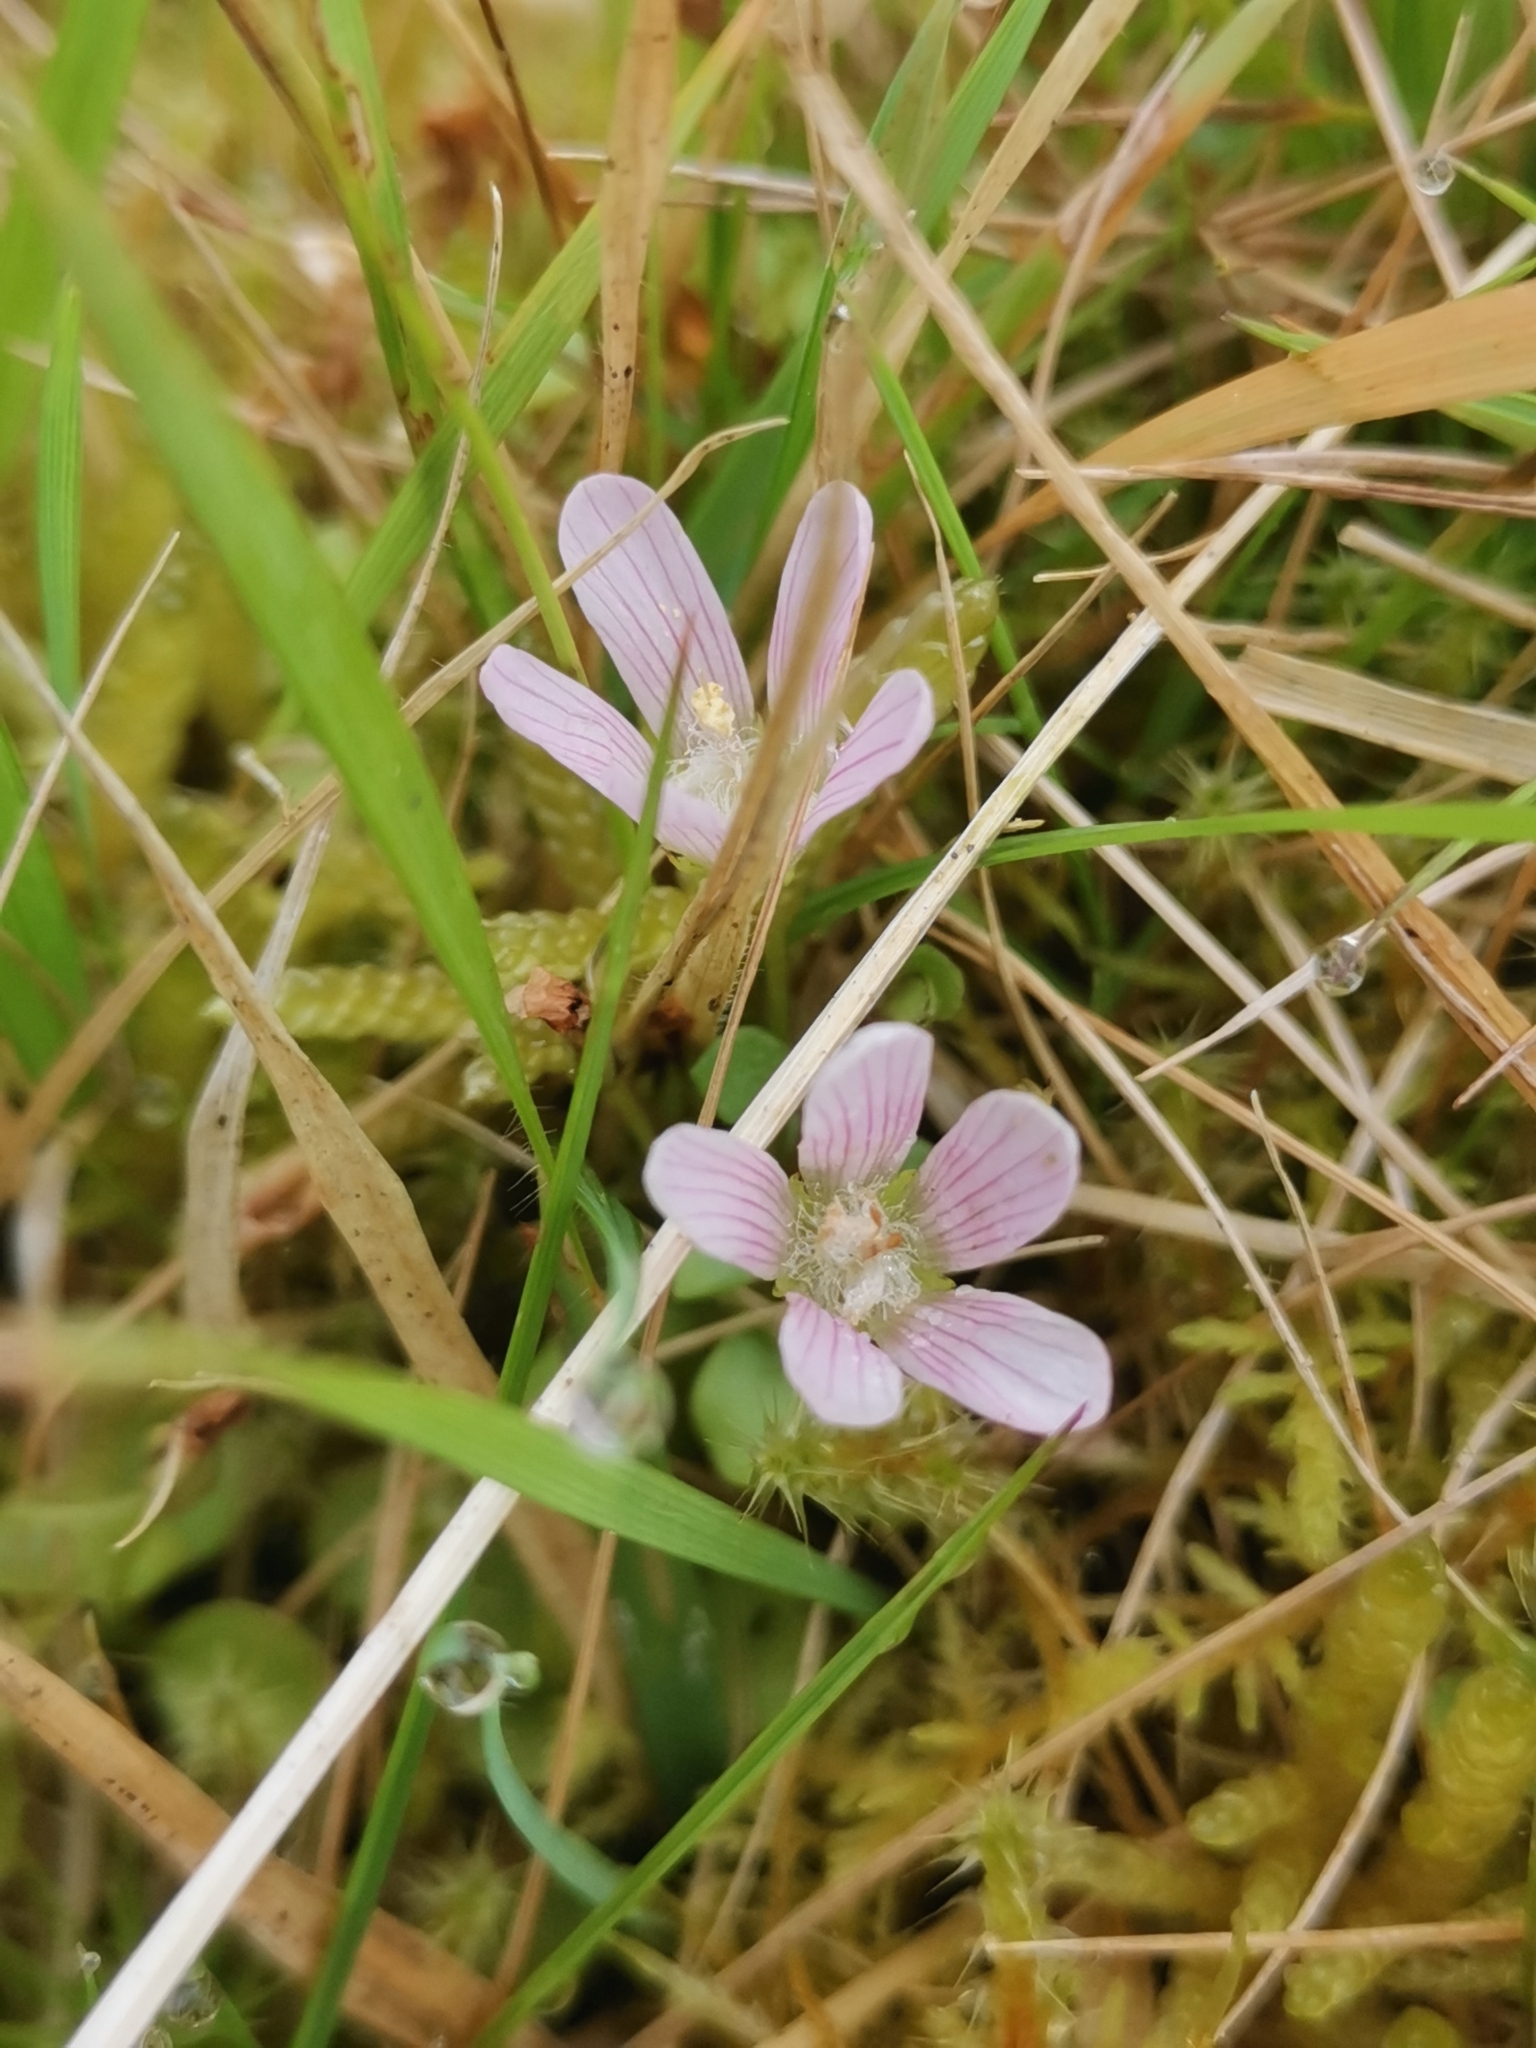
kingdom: Plantae
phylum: Tracheophyta
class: Magnoliopsida
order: Ericales
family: Primulaceae
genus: Lysimachia
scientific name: Lysimachia tenella
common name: European bog pimpernel
